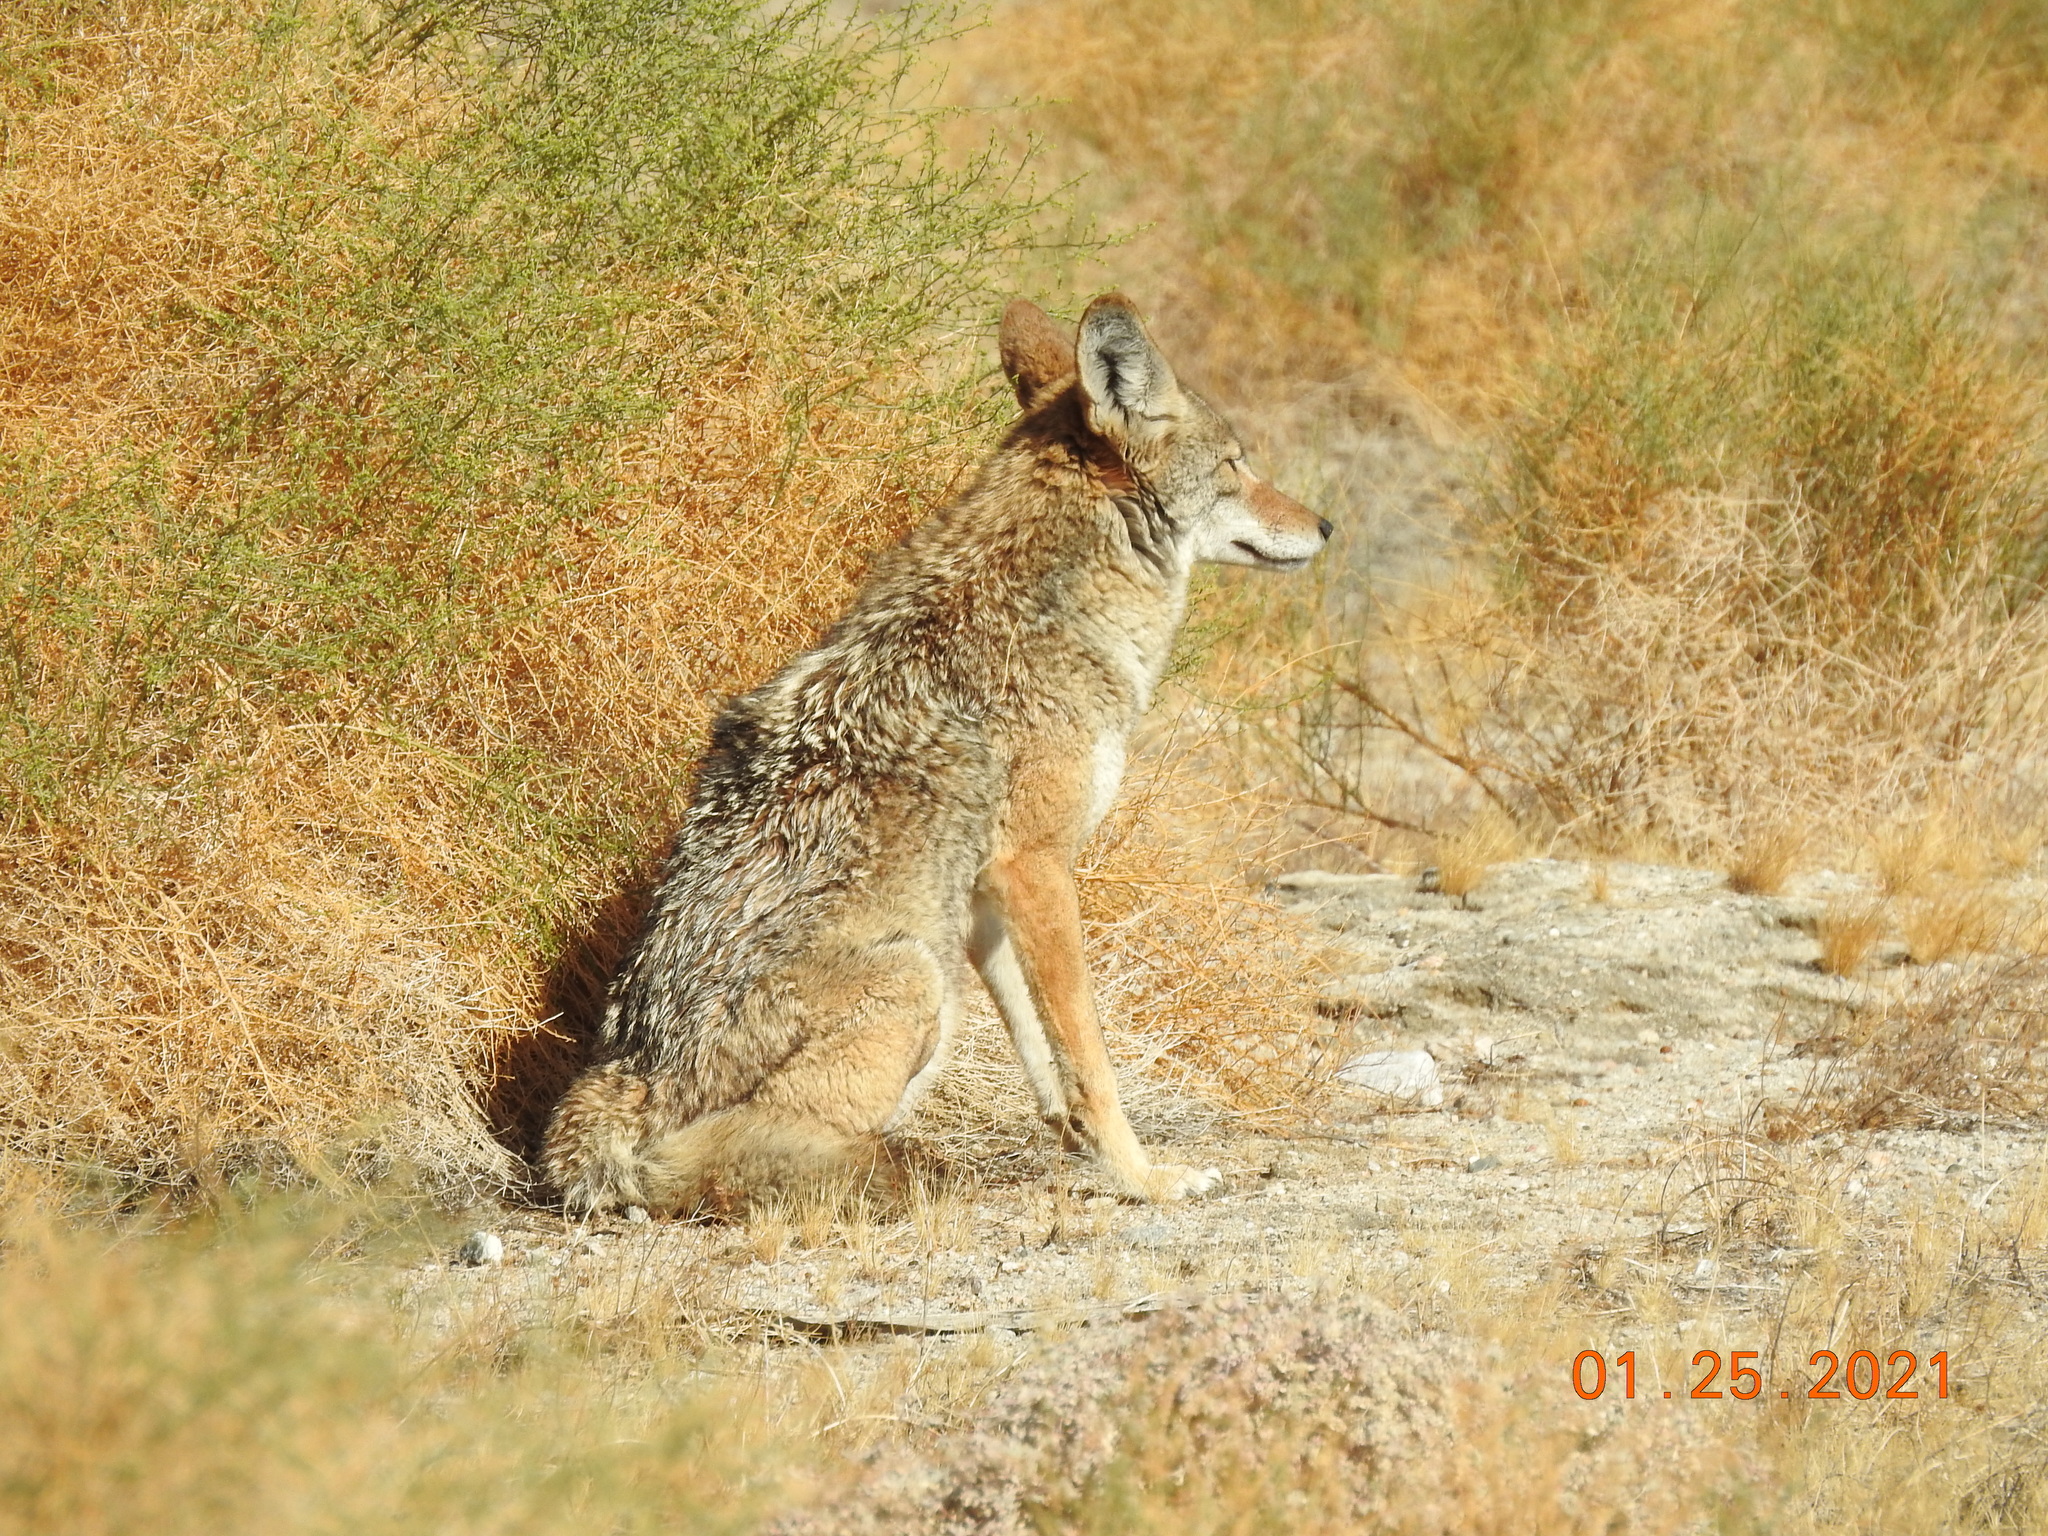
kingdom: Animalia
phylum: Chordata
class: Mammalia
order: Carnivora
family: Canidae
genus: Canis
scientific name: Canis latrans
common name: Coyote
